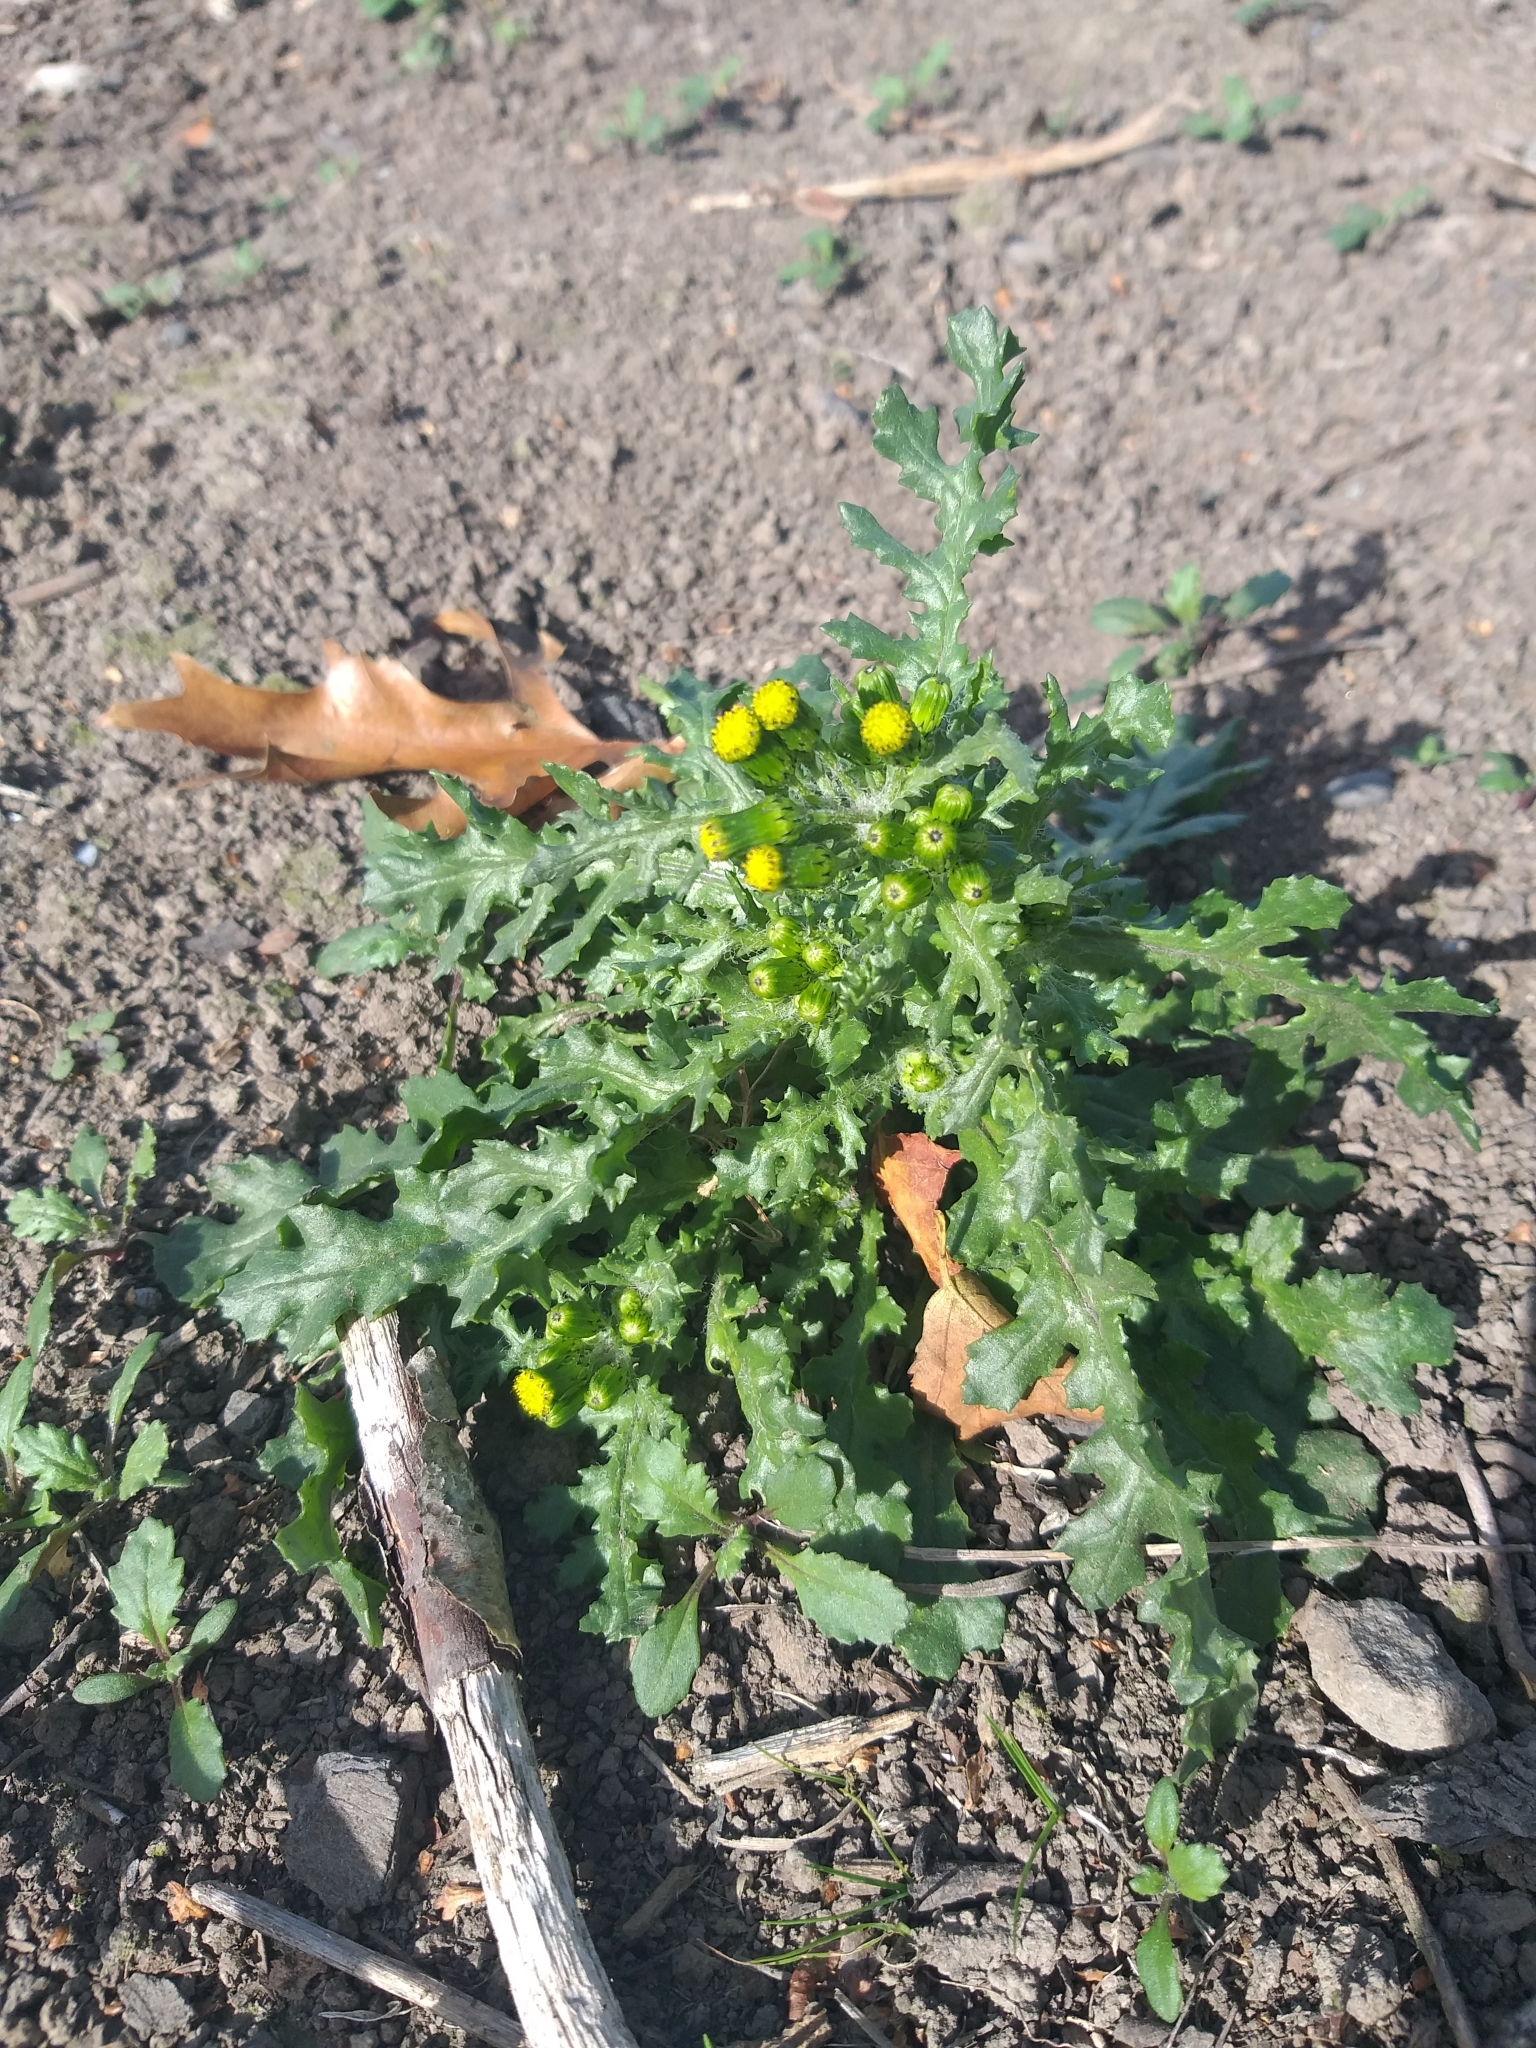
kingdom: Plantae
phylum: Tracheophyta
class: Magnoliopsida
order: Asterales
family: Asteraceae
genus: Senecio
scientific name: Senecio vulgaris
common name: Old-man-in-the-spring
